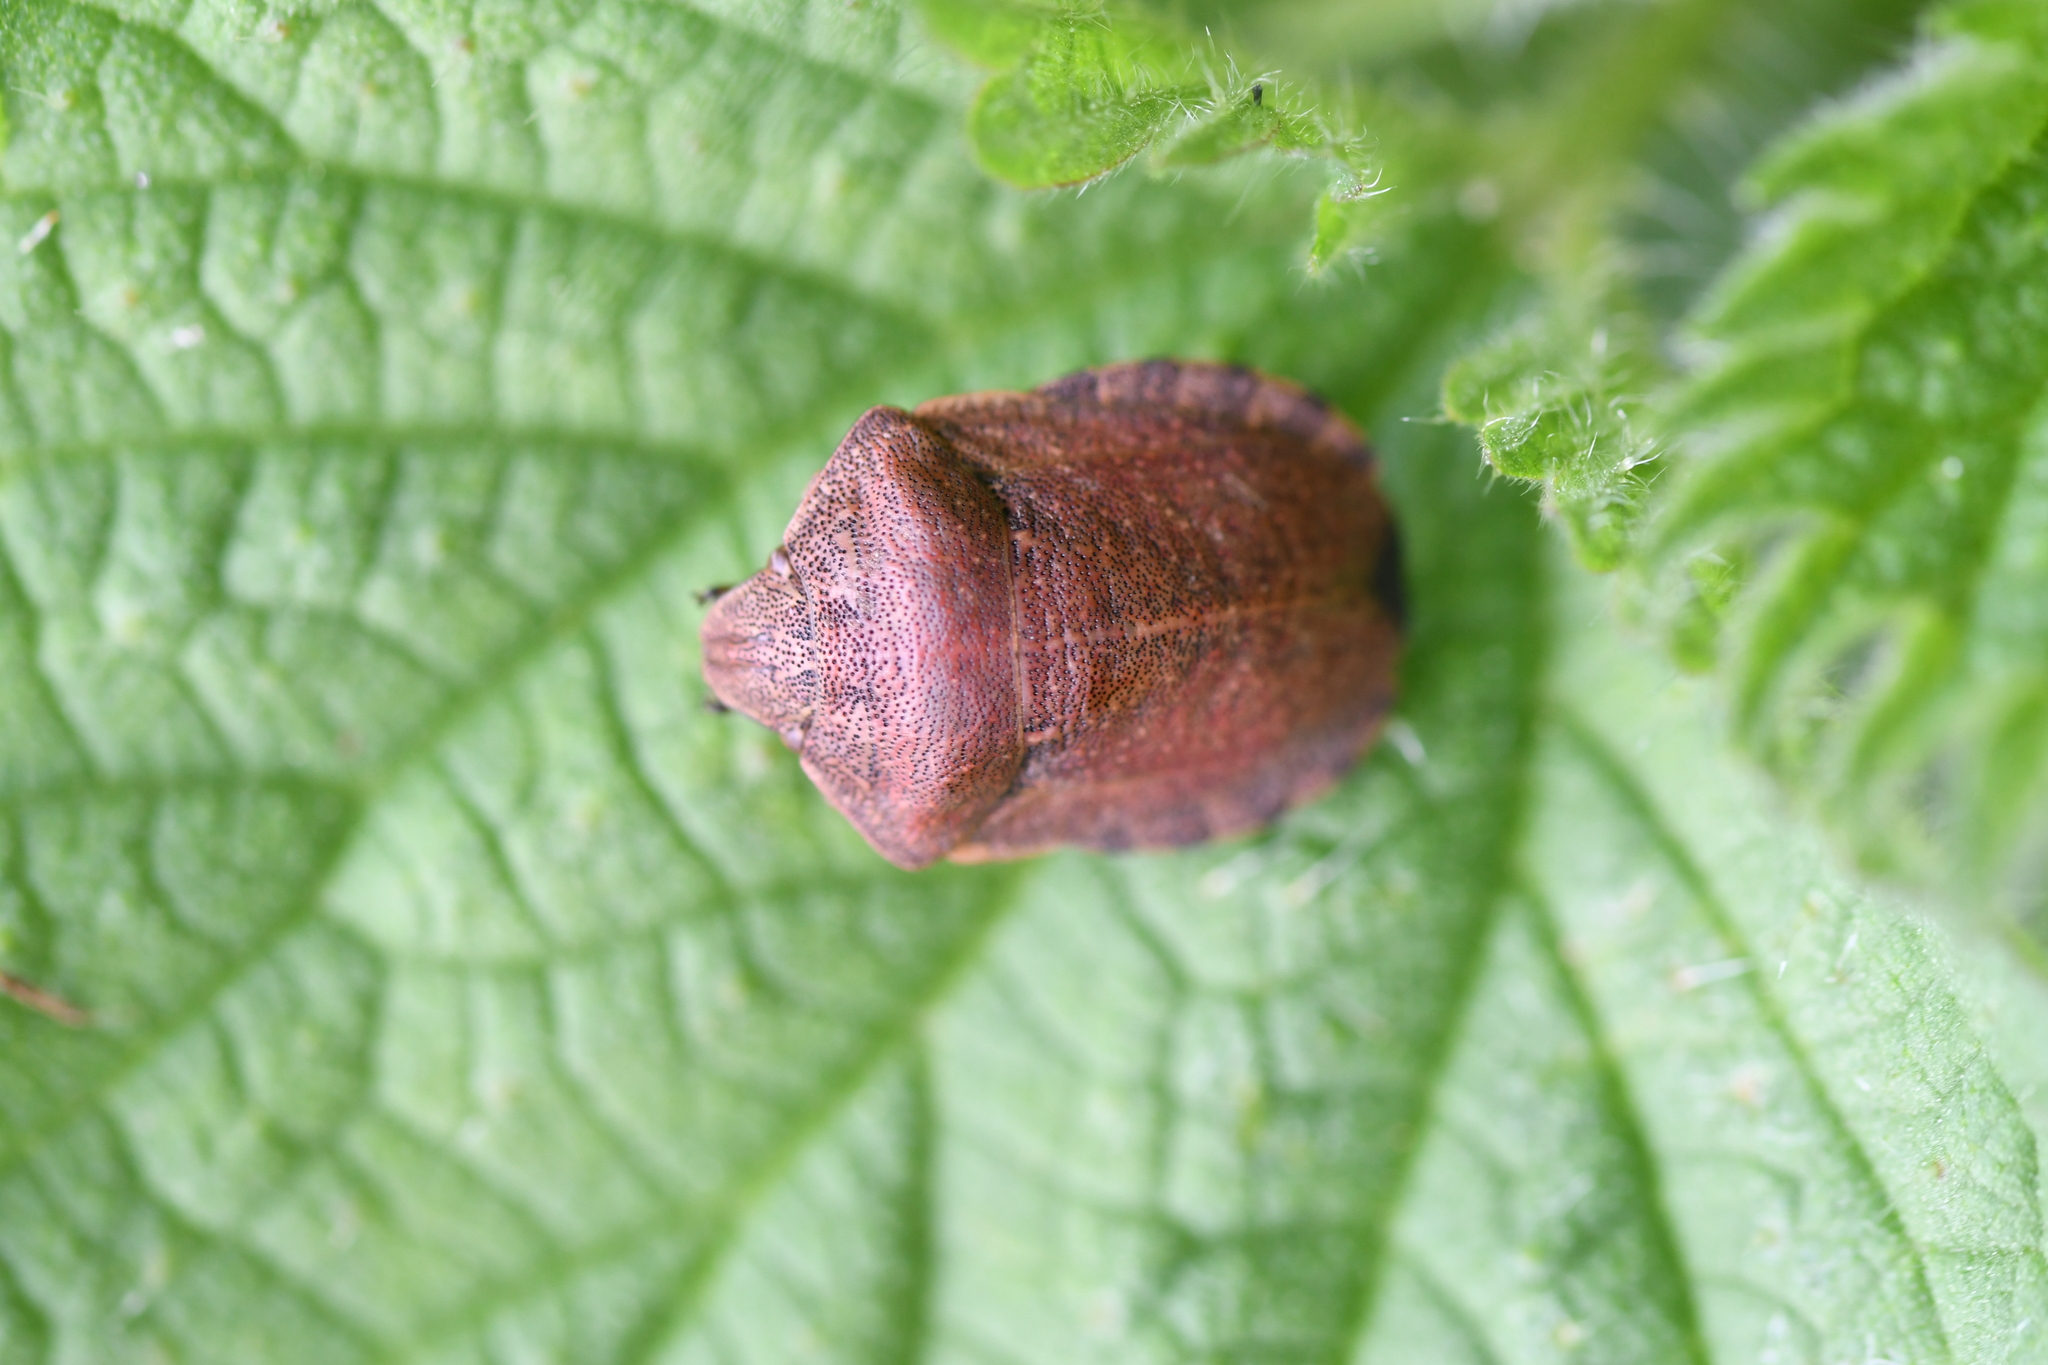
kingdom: Animalia
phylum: Arthropoda
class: Insecta
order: Hemiptera
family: Scutelleridae
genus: Eurygaster
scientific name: Eurygaster testudinaria
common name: Tortoise bug
